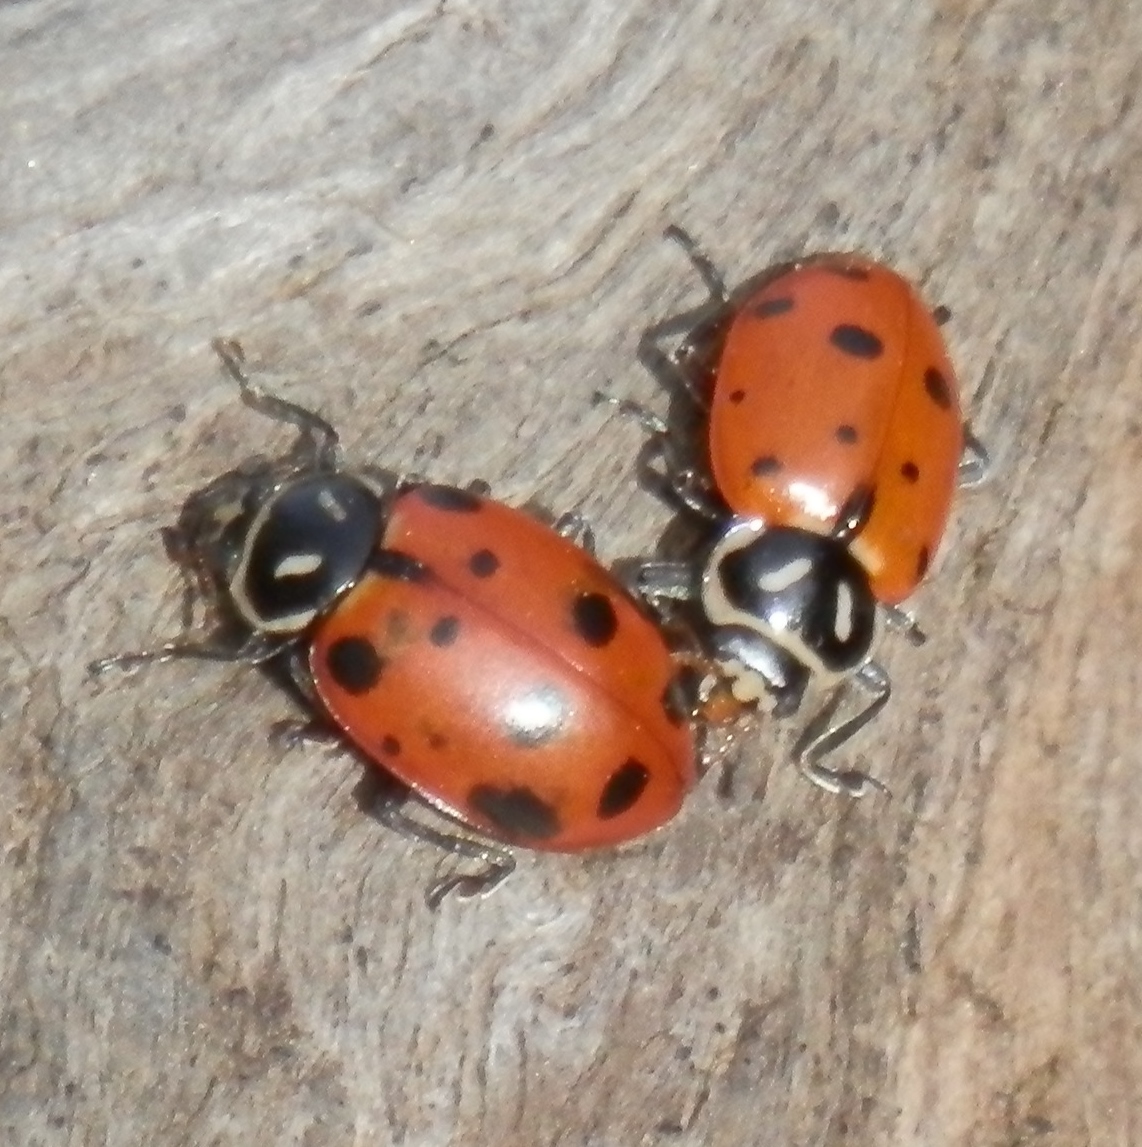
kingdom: Animalia
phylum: Arthropoda
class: Insecta
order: Coleoptera
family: Coccinellidae
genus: Hippodamia
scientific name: Hippodamia convergens
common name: Convergent lady beetle
